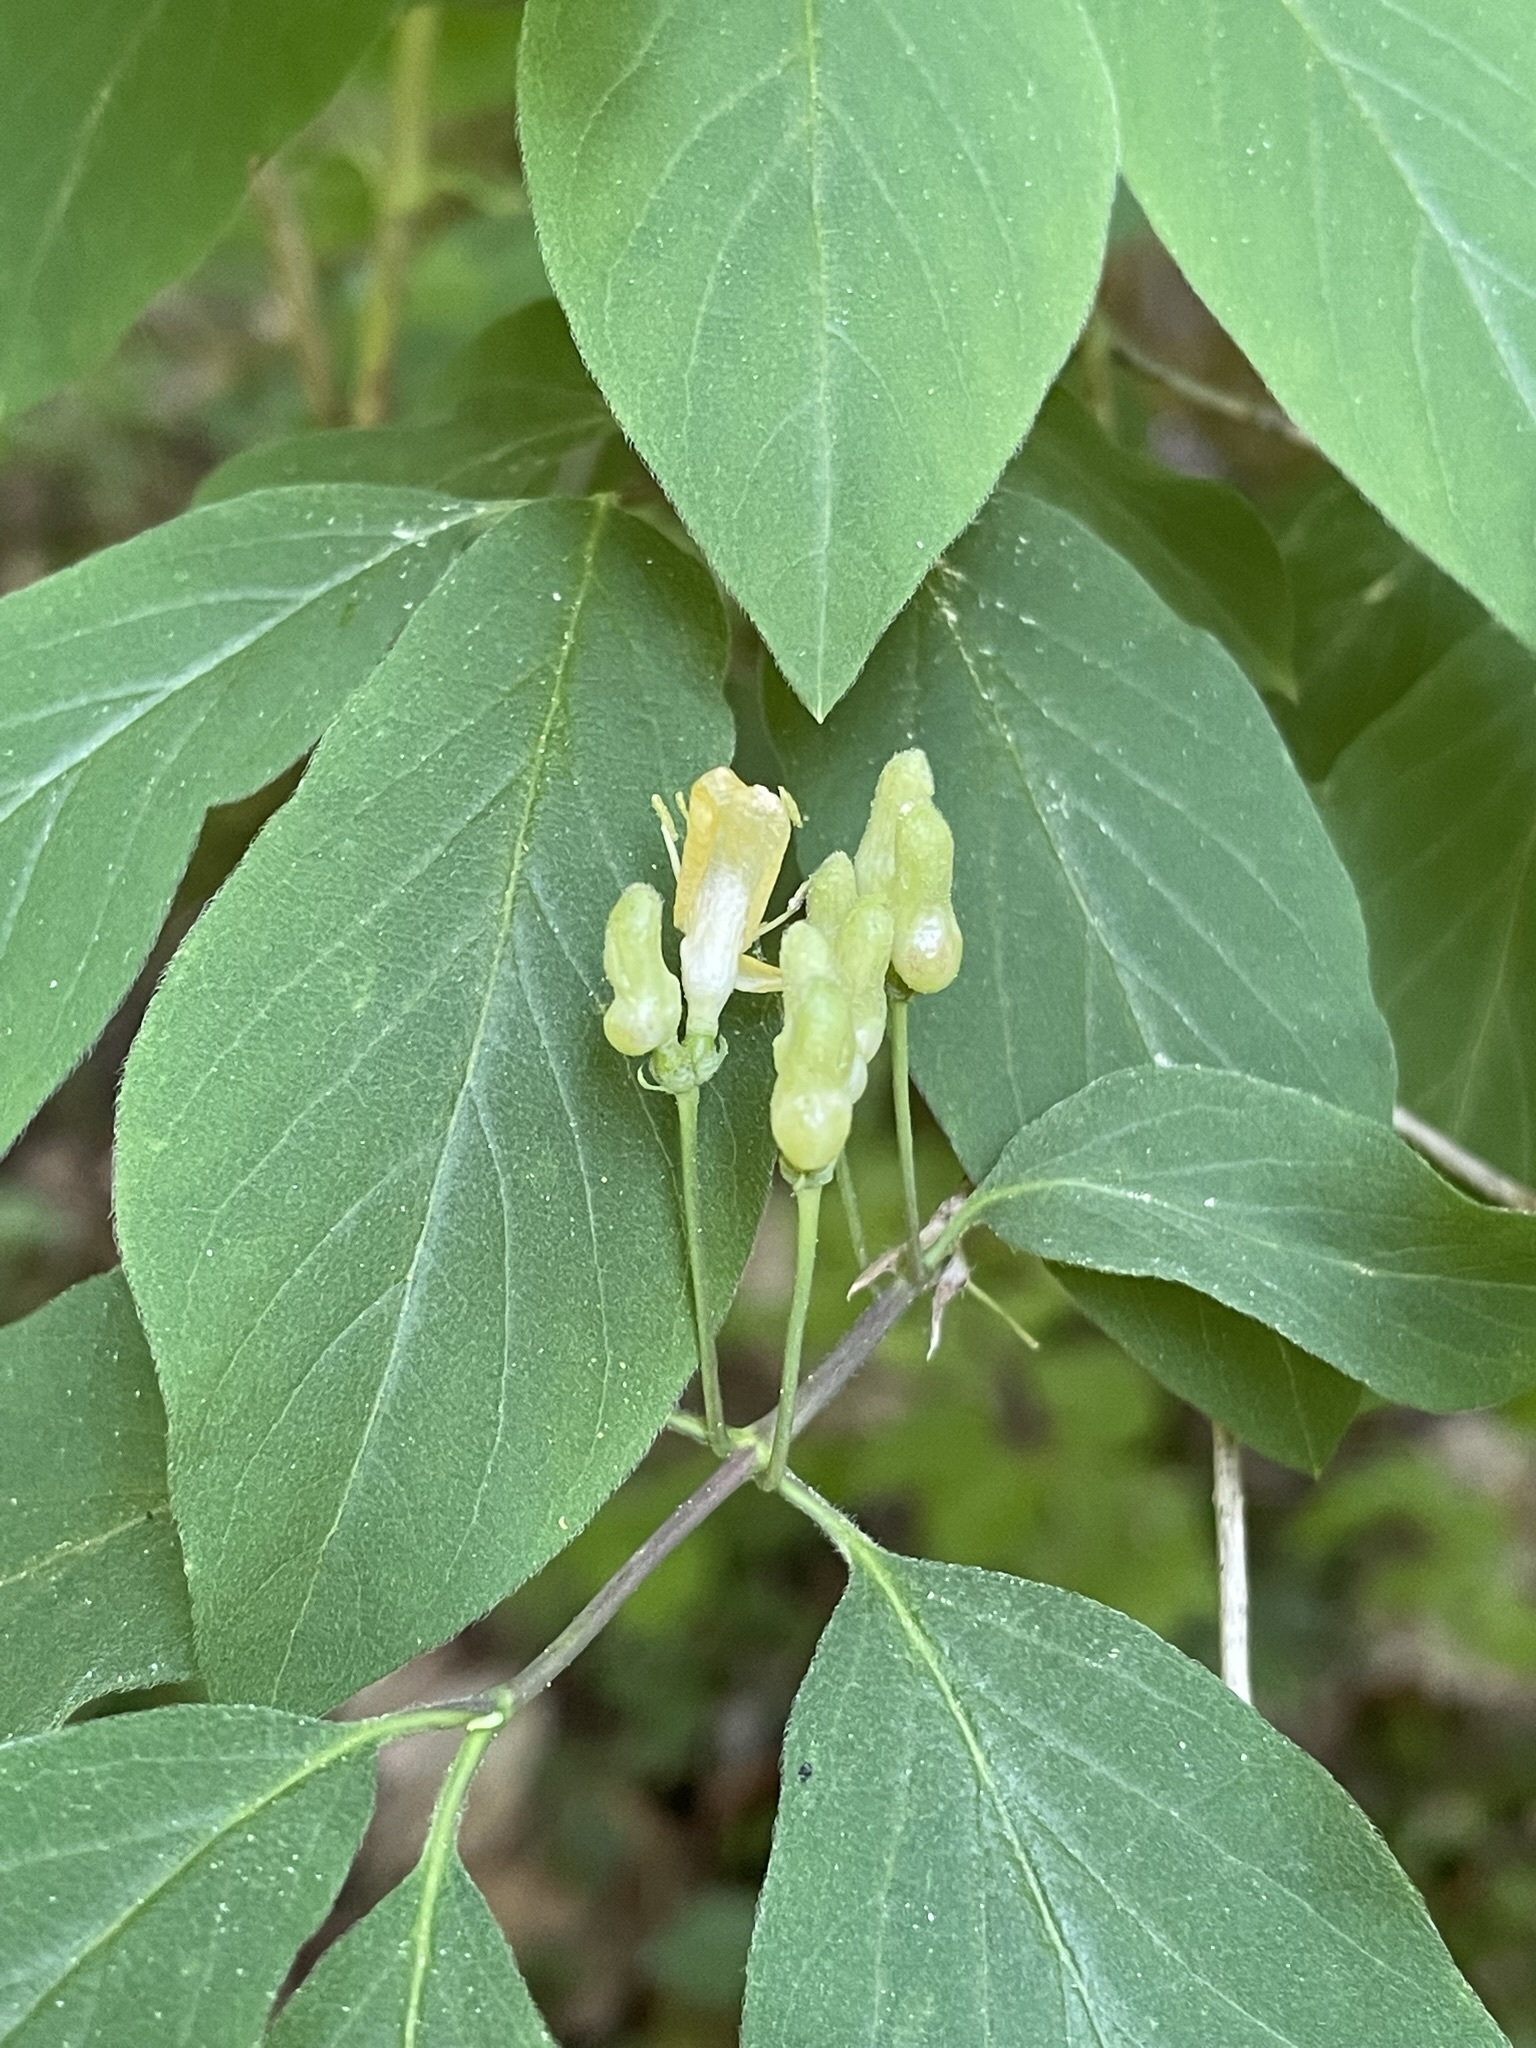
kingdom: Plantae
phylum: Tracheophyta
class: Magnoliopsida
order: Dipsacales
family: Caprifoliaceae
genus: Lonicera
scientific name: Lonicera xylosteum
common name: Fly honeysuckle
